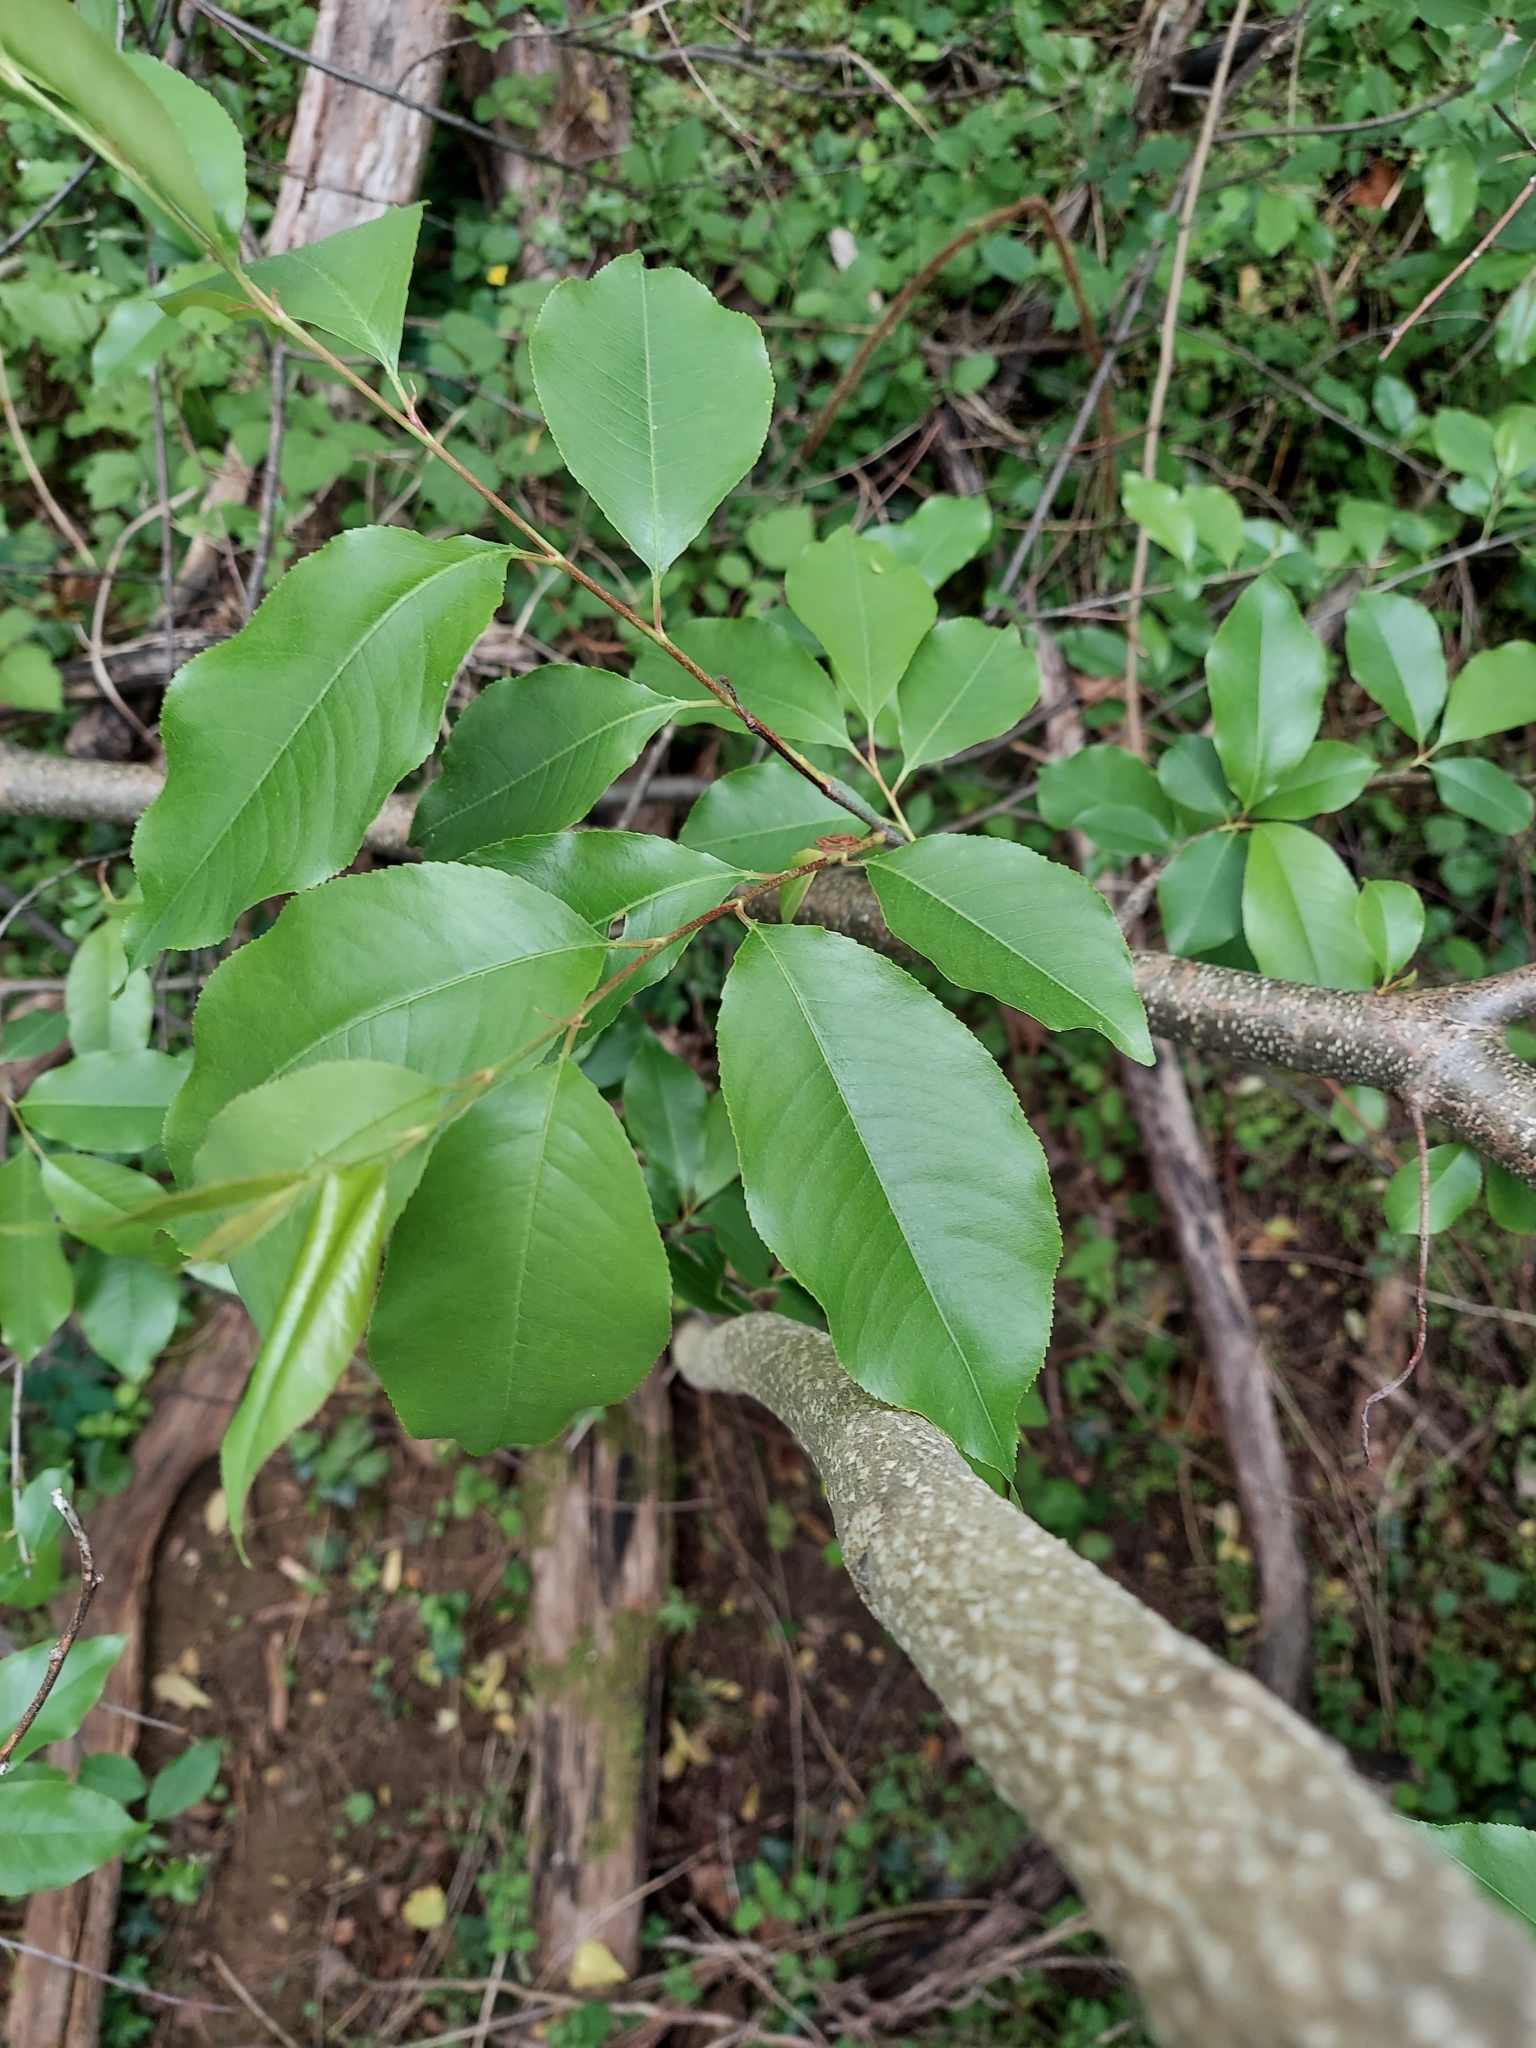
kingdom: Plantae
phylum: Tracheophyta
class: Magnoliopsida
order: Rosales
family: Rosaceae
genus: Prunus
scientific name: Prunus serotina
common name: Black cherry
